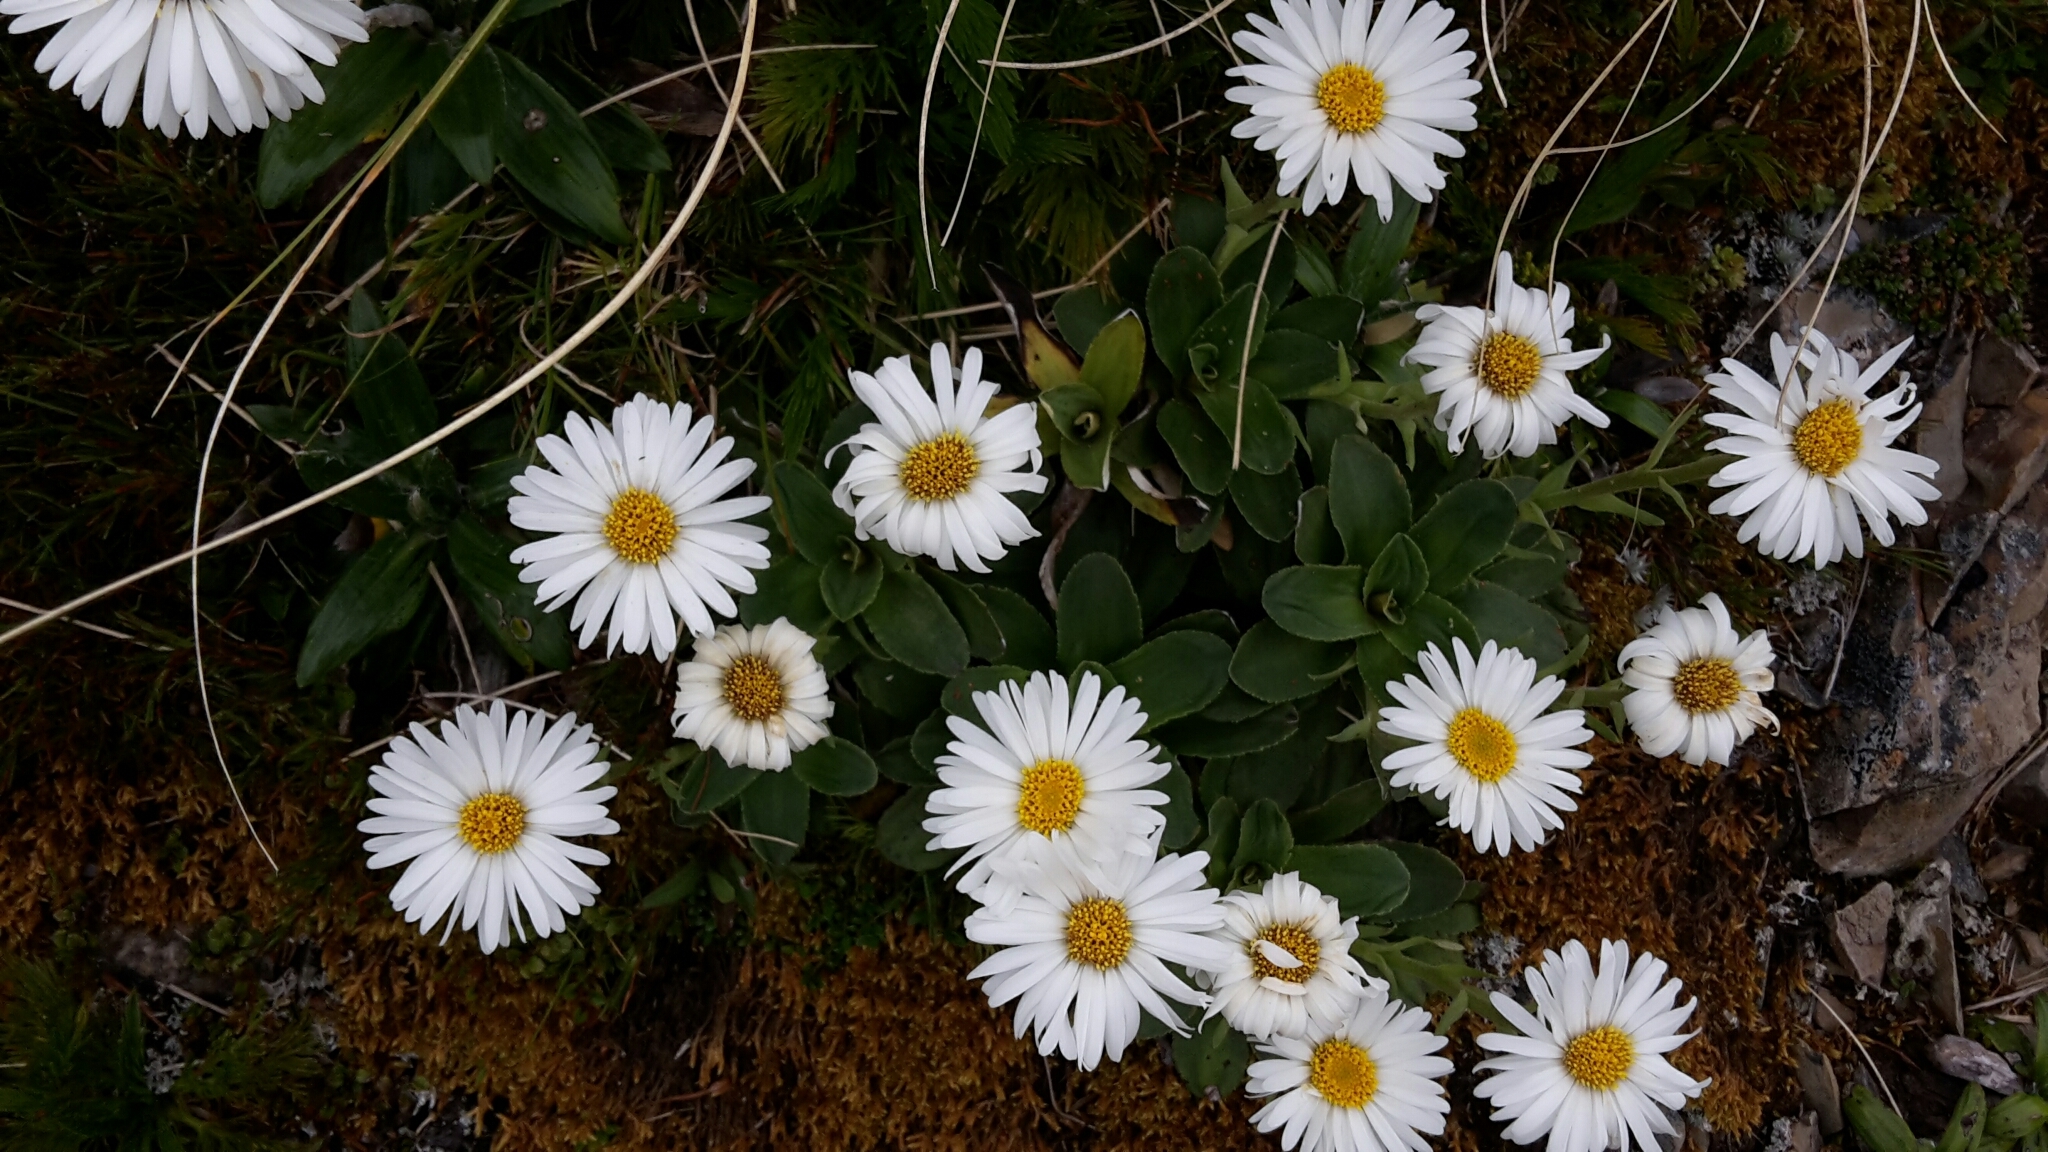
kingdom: Plantae
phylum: Tracheophyta
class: Magnoliopsida
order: Asterales
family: Asteraceae
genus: Celmisia
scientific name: Celmisia hieraciifolia
